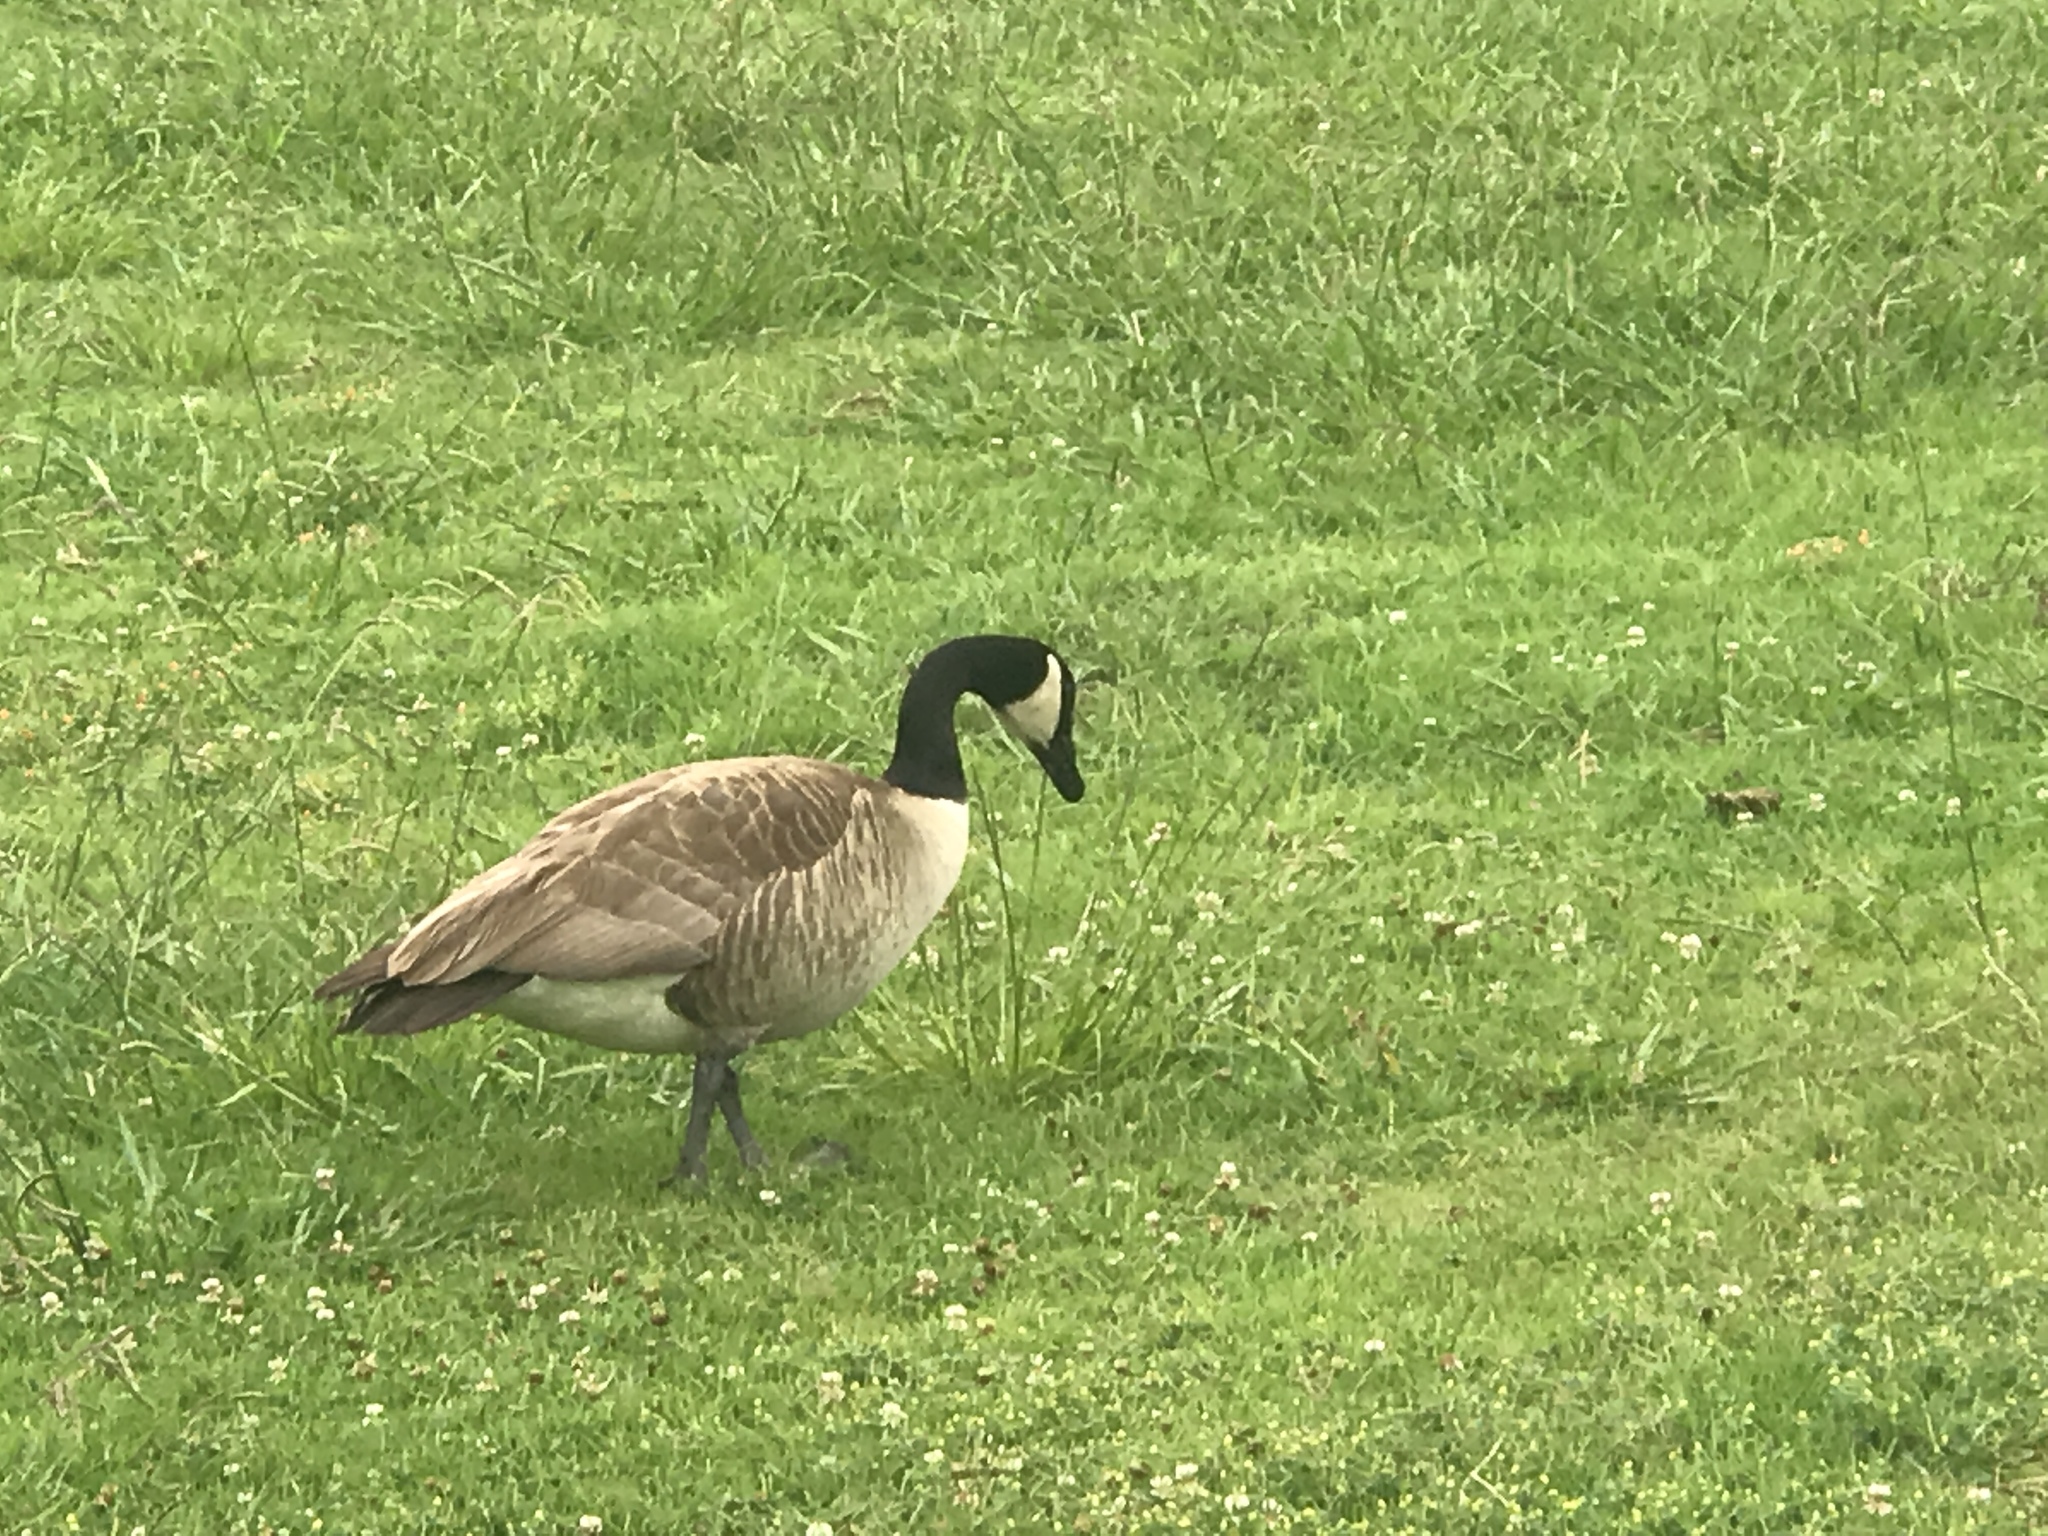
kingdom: Animalia
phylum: Chordata
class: Aves
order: Anseriformes
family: Anatidae
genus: Branta
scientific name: Branta canadensis
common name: Canada goose
